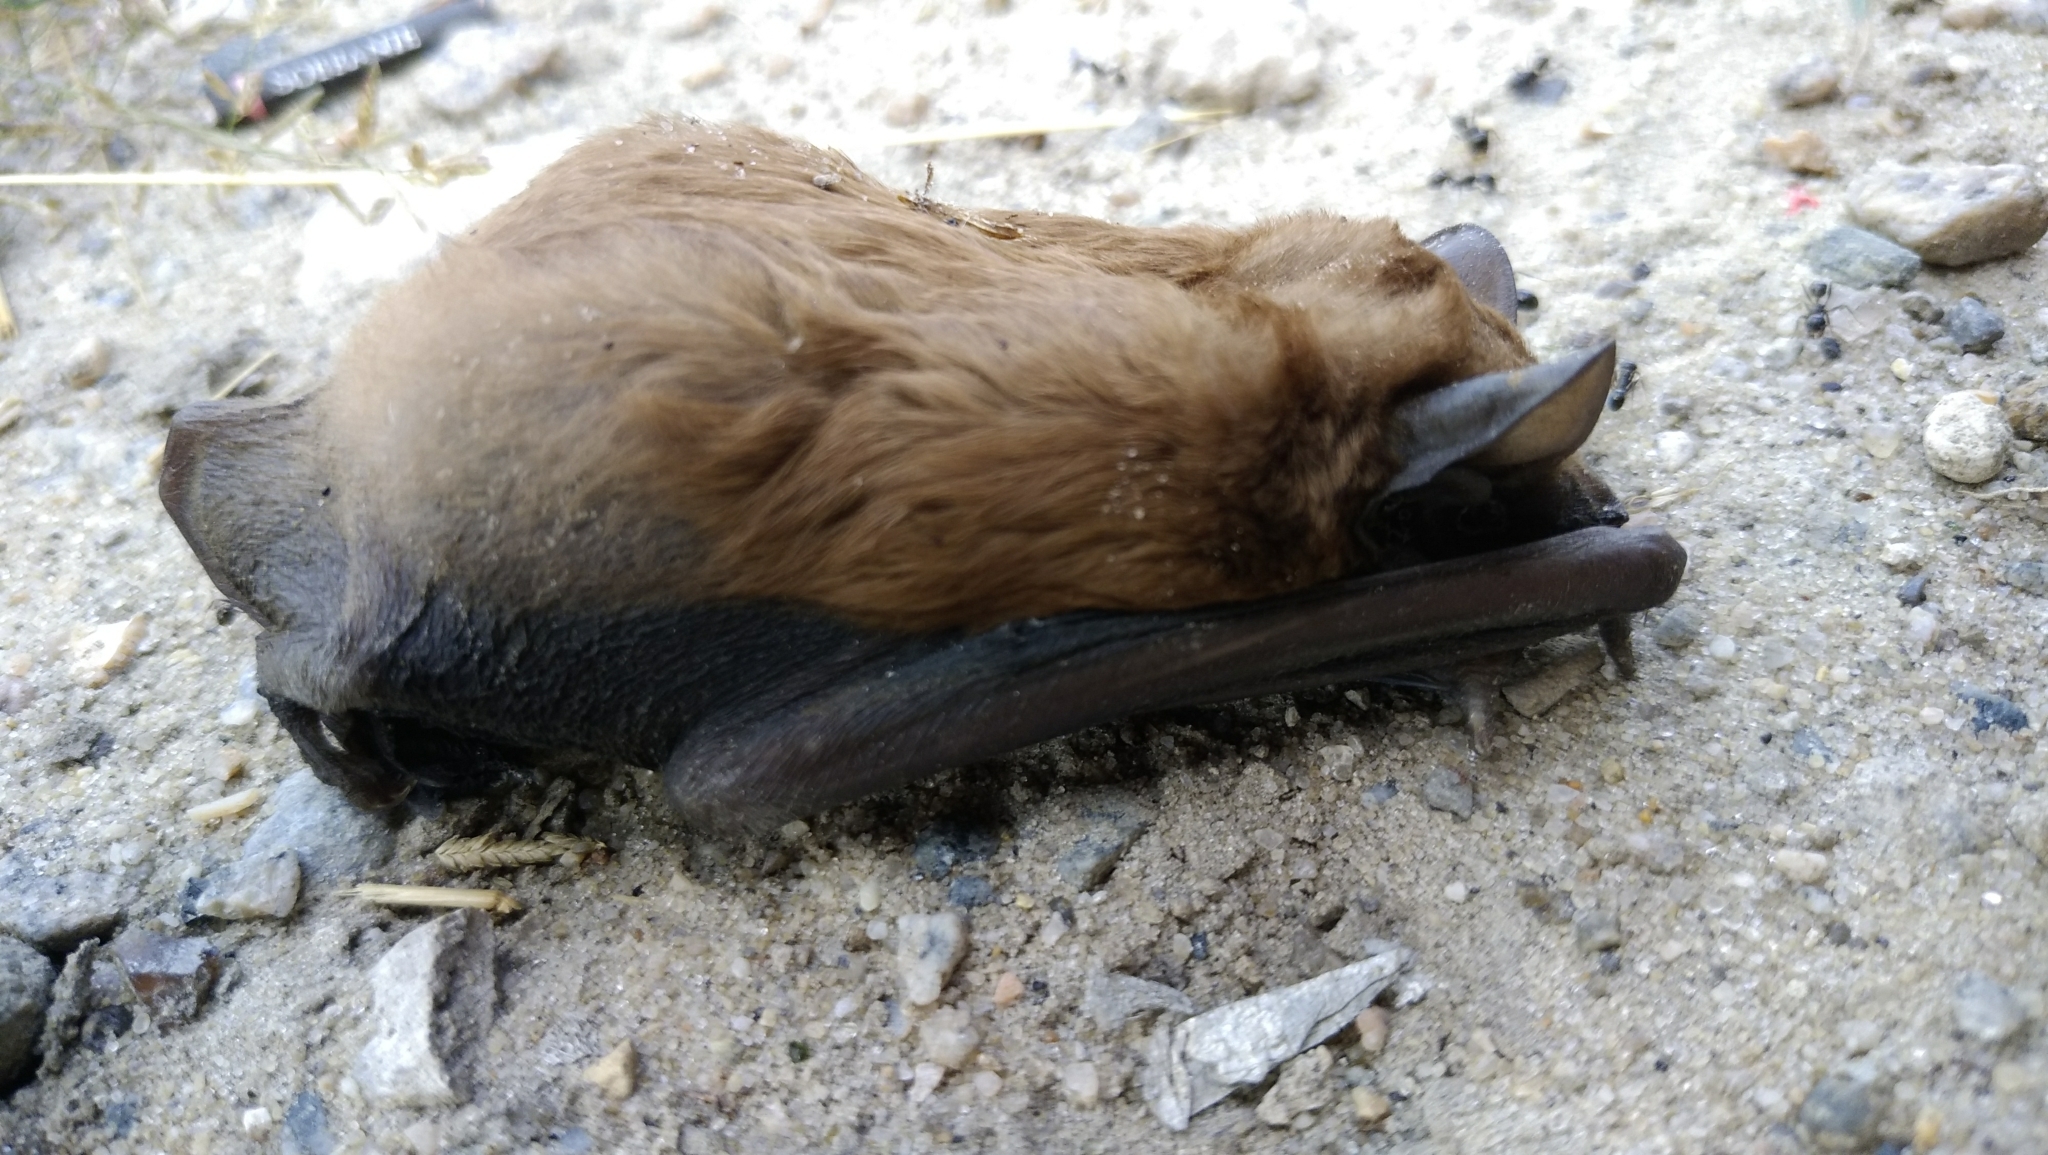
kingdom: Animalia
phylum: Chordata
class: Mammalia
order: Chiroptera
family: Vespertilionidae
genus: Nyctalus
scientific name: Nyctalus noctula
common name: Noctule
